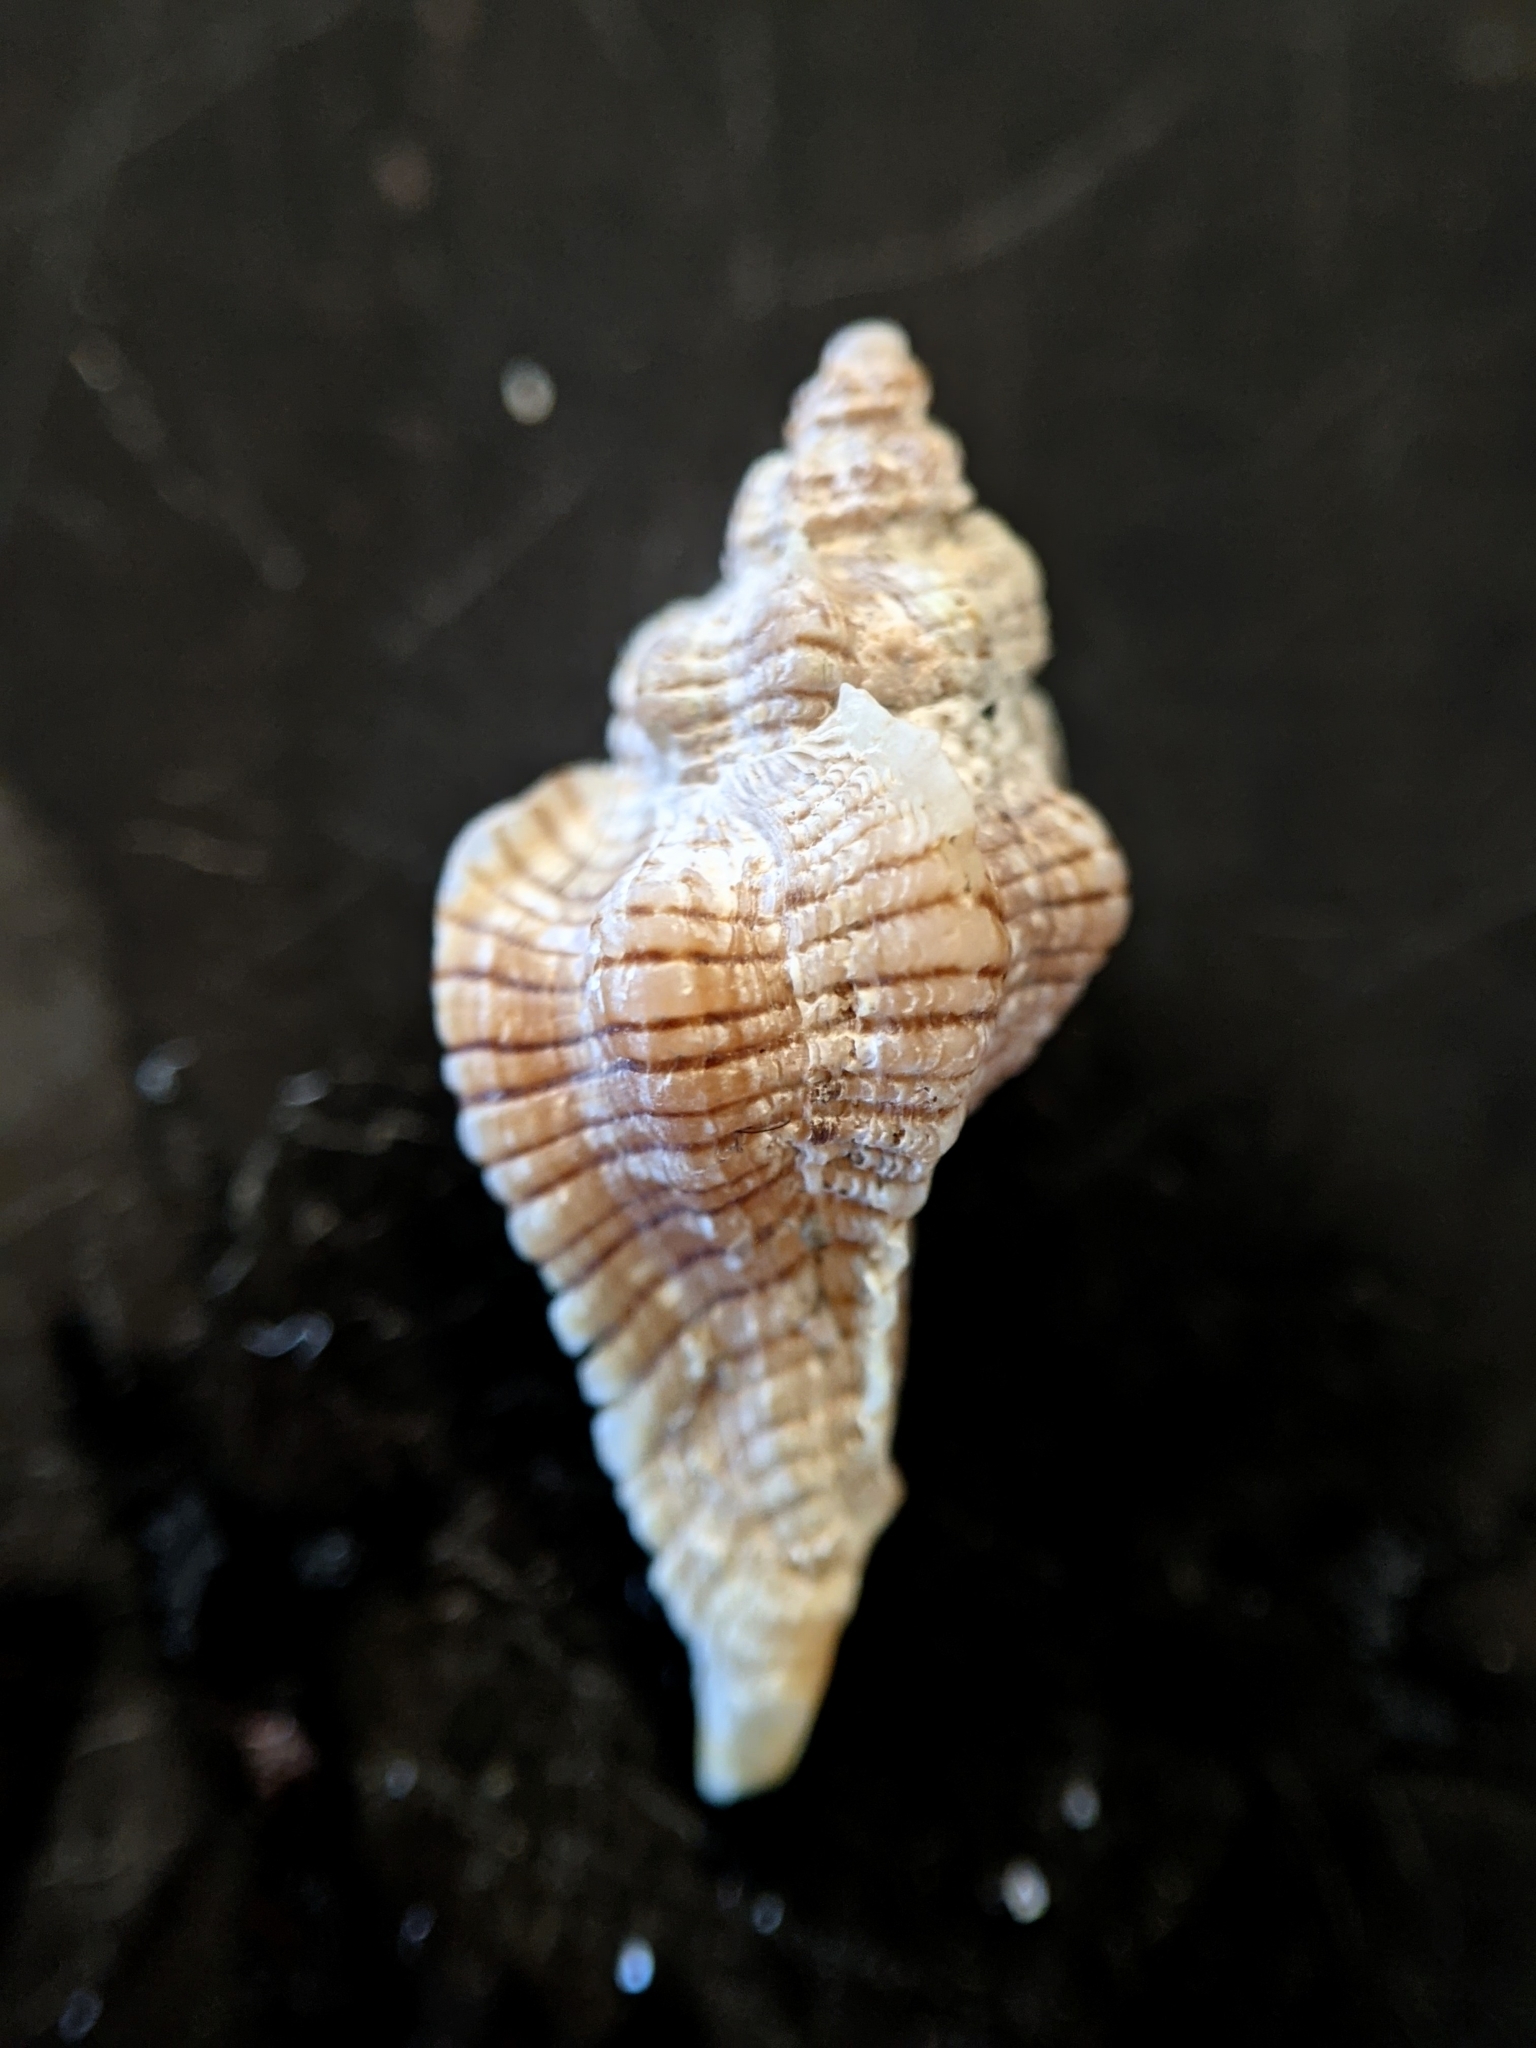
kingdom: Animalia
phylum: Mollusca
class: Gastropoda
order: Neogastropoda
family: Muricidae
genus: Pteropurpura
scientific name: Pteropurpura festiva
